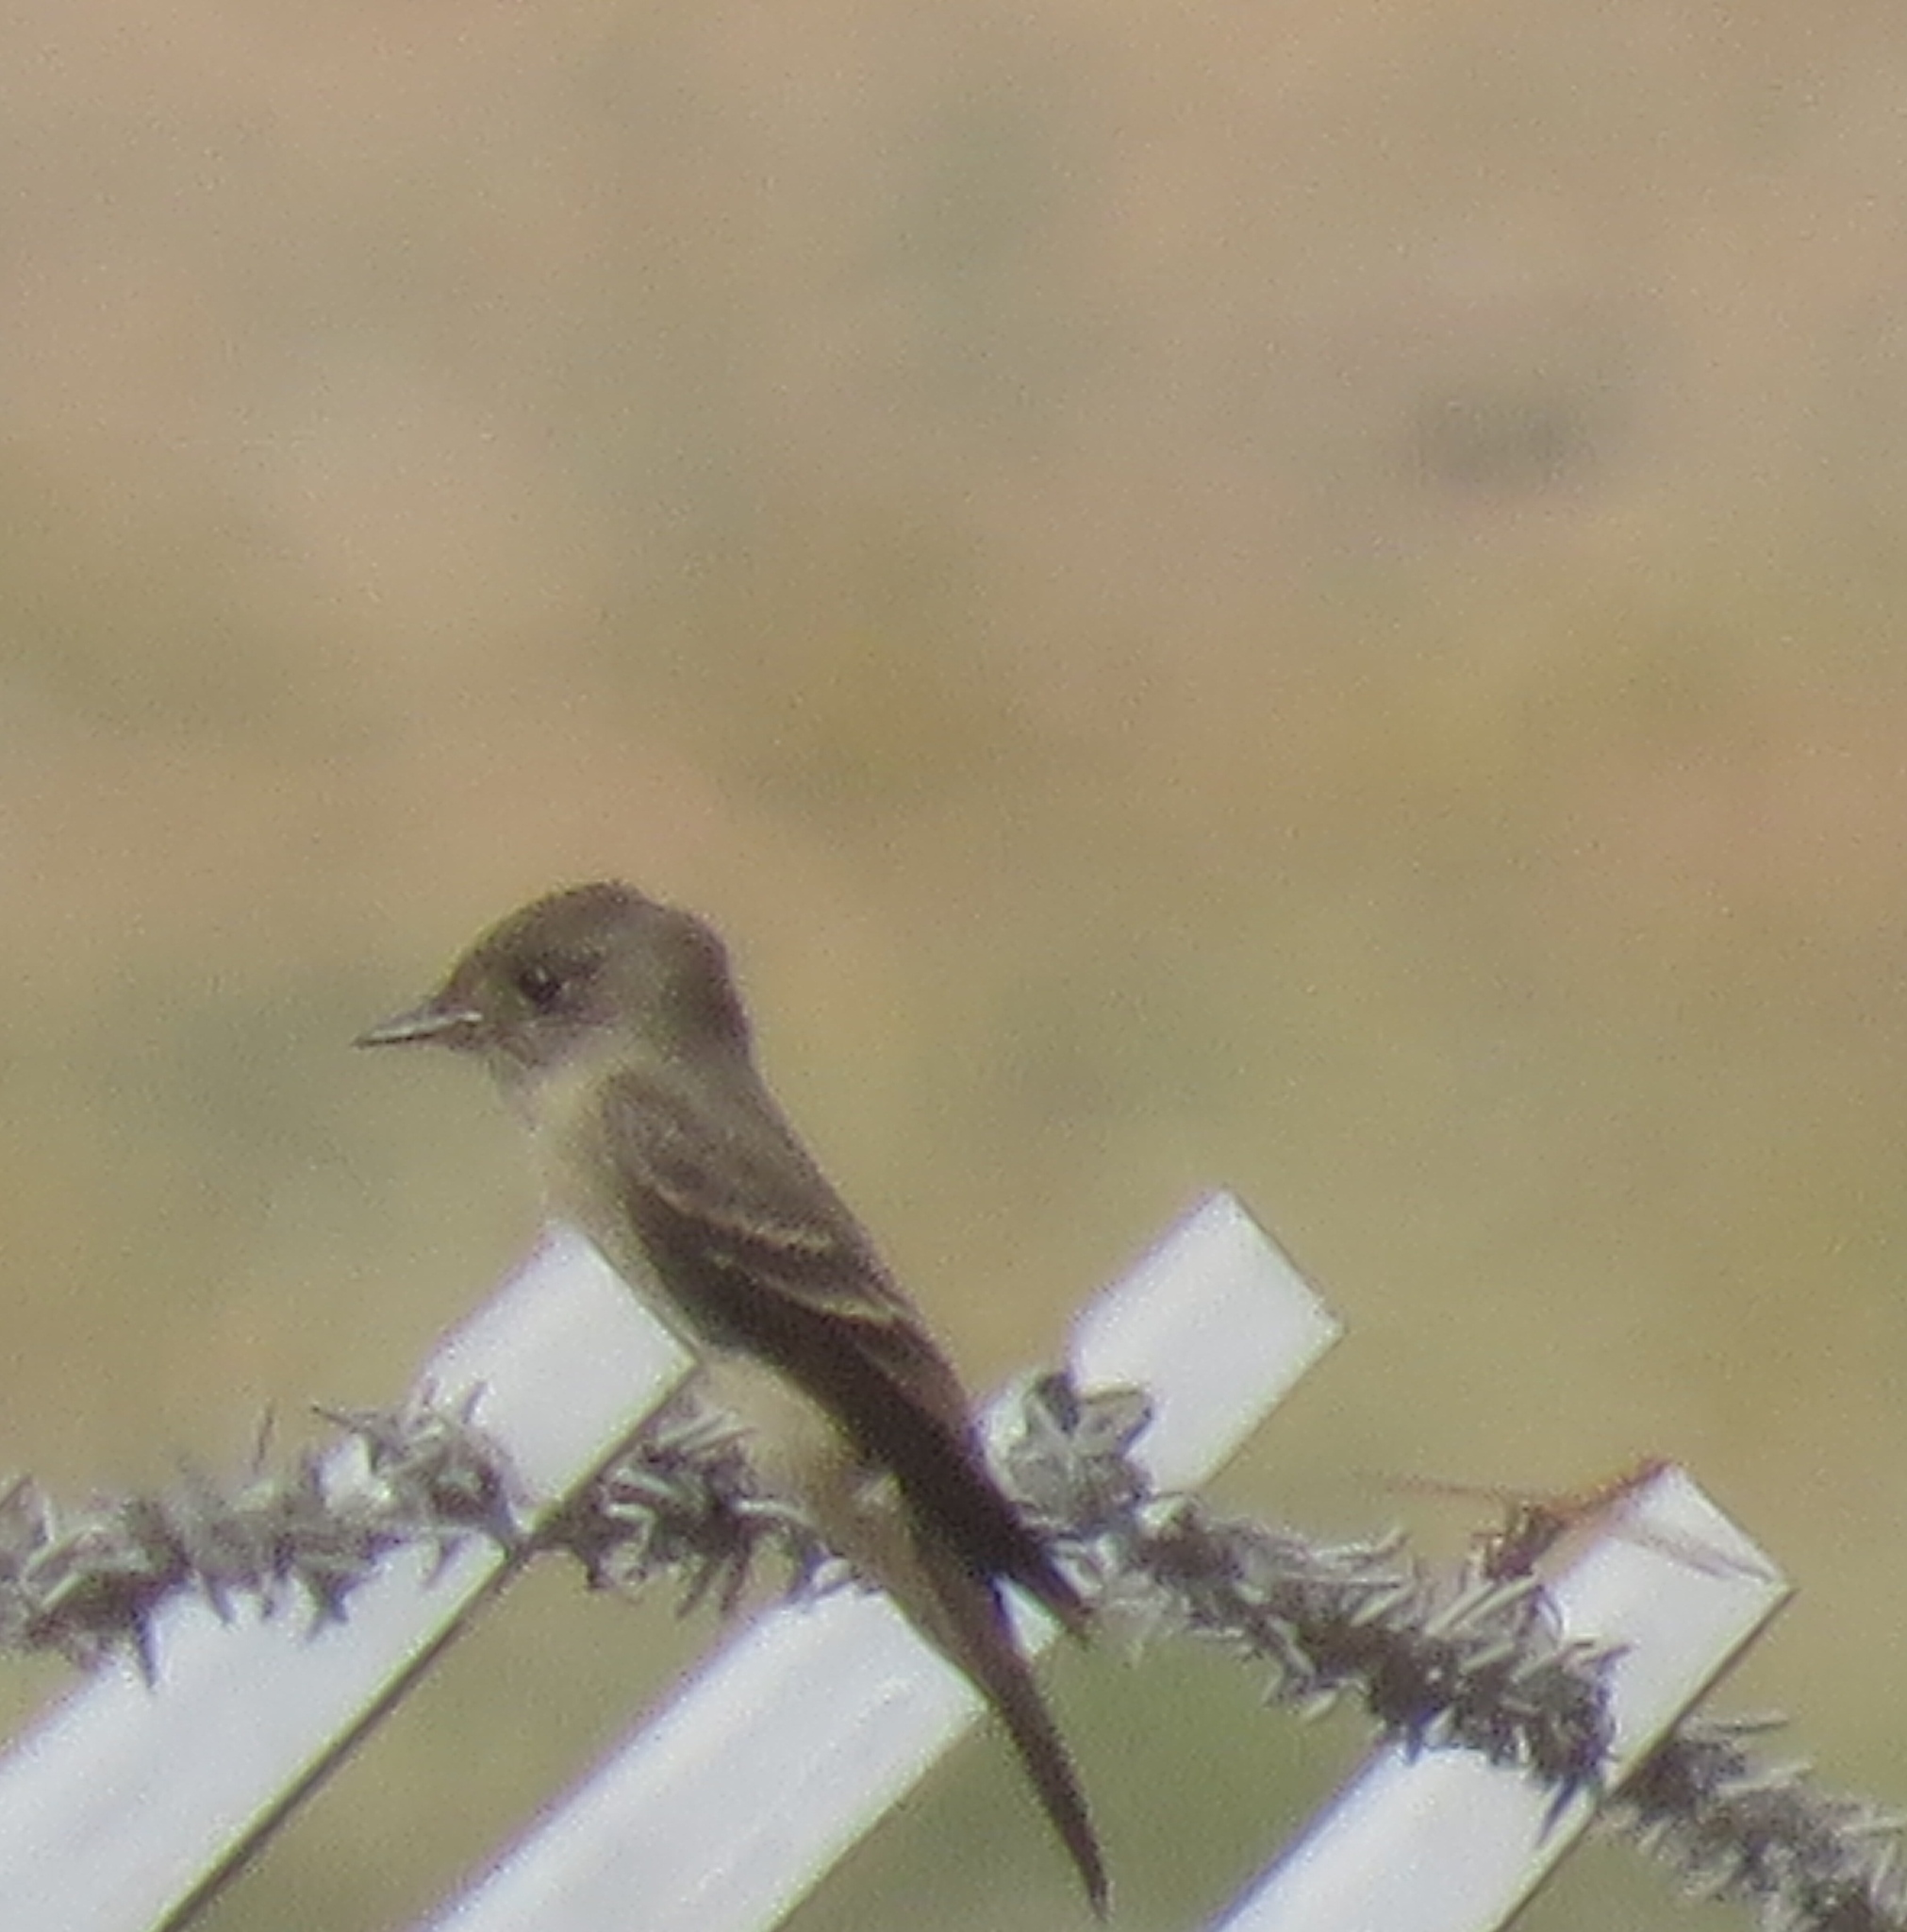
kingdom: Animalia
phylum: Chordata
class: Aves
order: Passeriformes
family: Tyrannidae
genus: Contopus
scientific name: Contopus sordidulus
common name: Western wood-pewee
